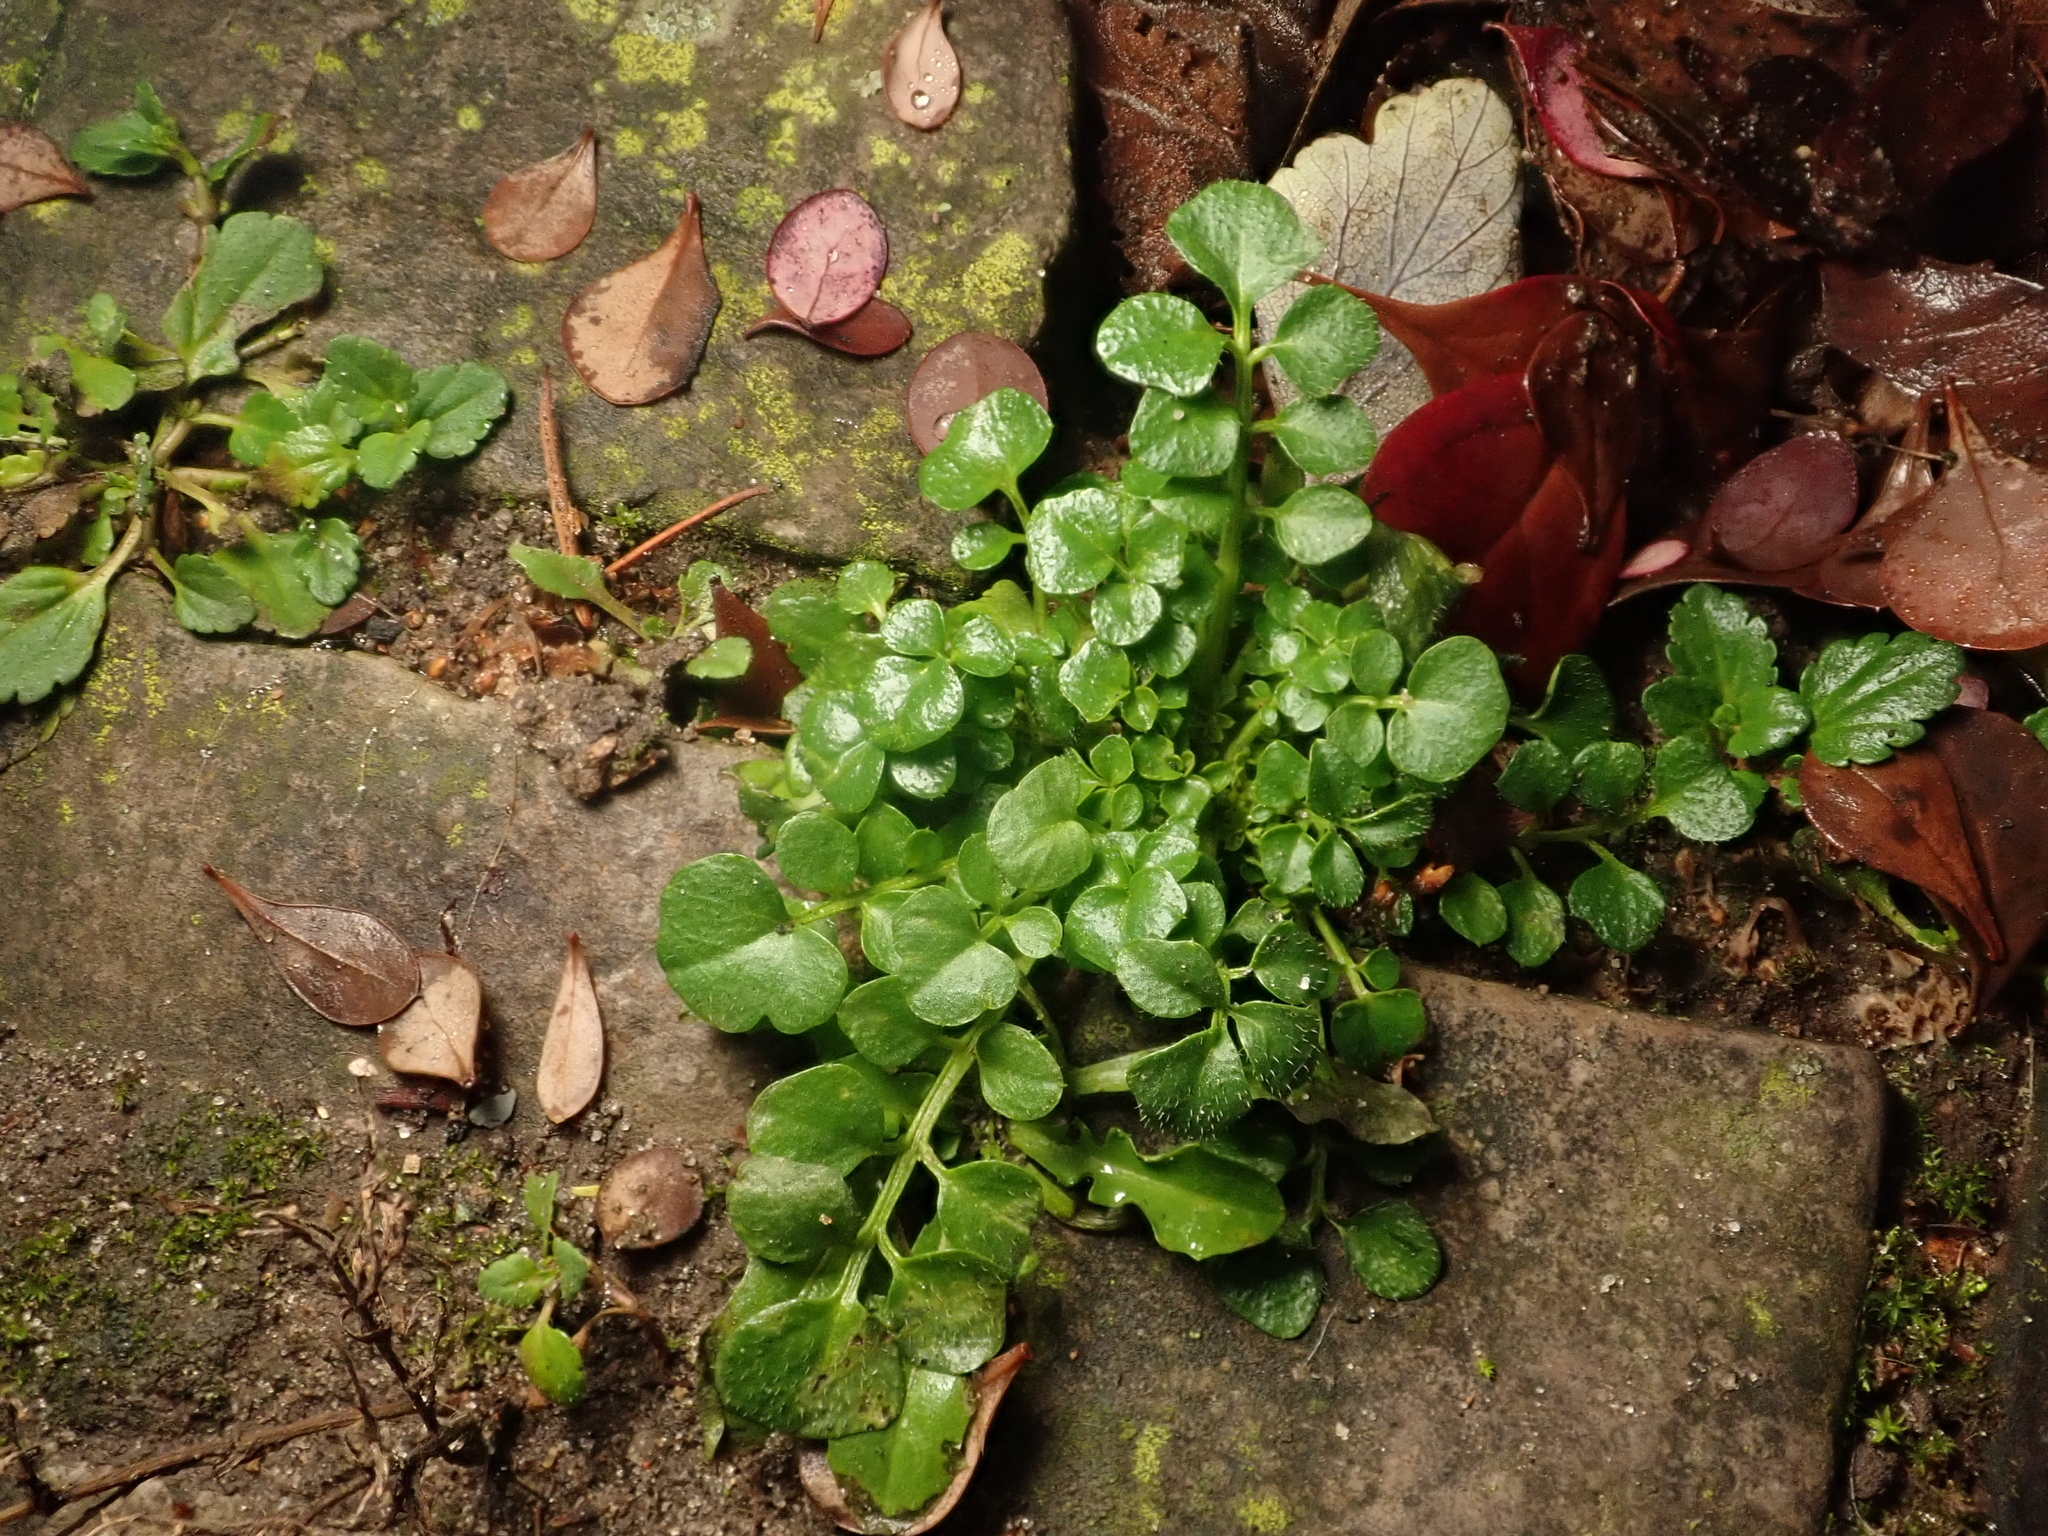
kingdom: Plantae
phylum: Tracheophyta
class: Magnoliopsida
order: Brassicales
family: Brassicaceae
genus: Cardamine
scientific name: Cardamine hirsuta
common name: Hairy bittercress
